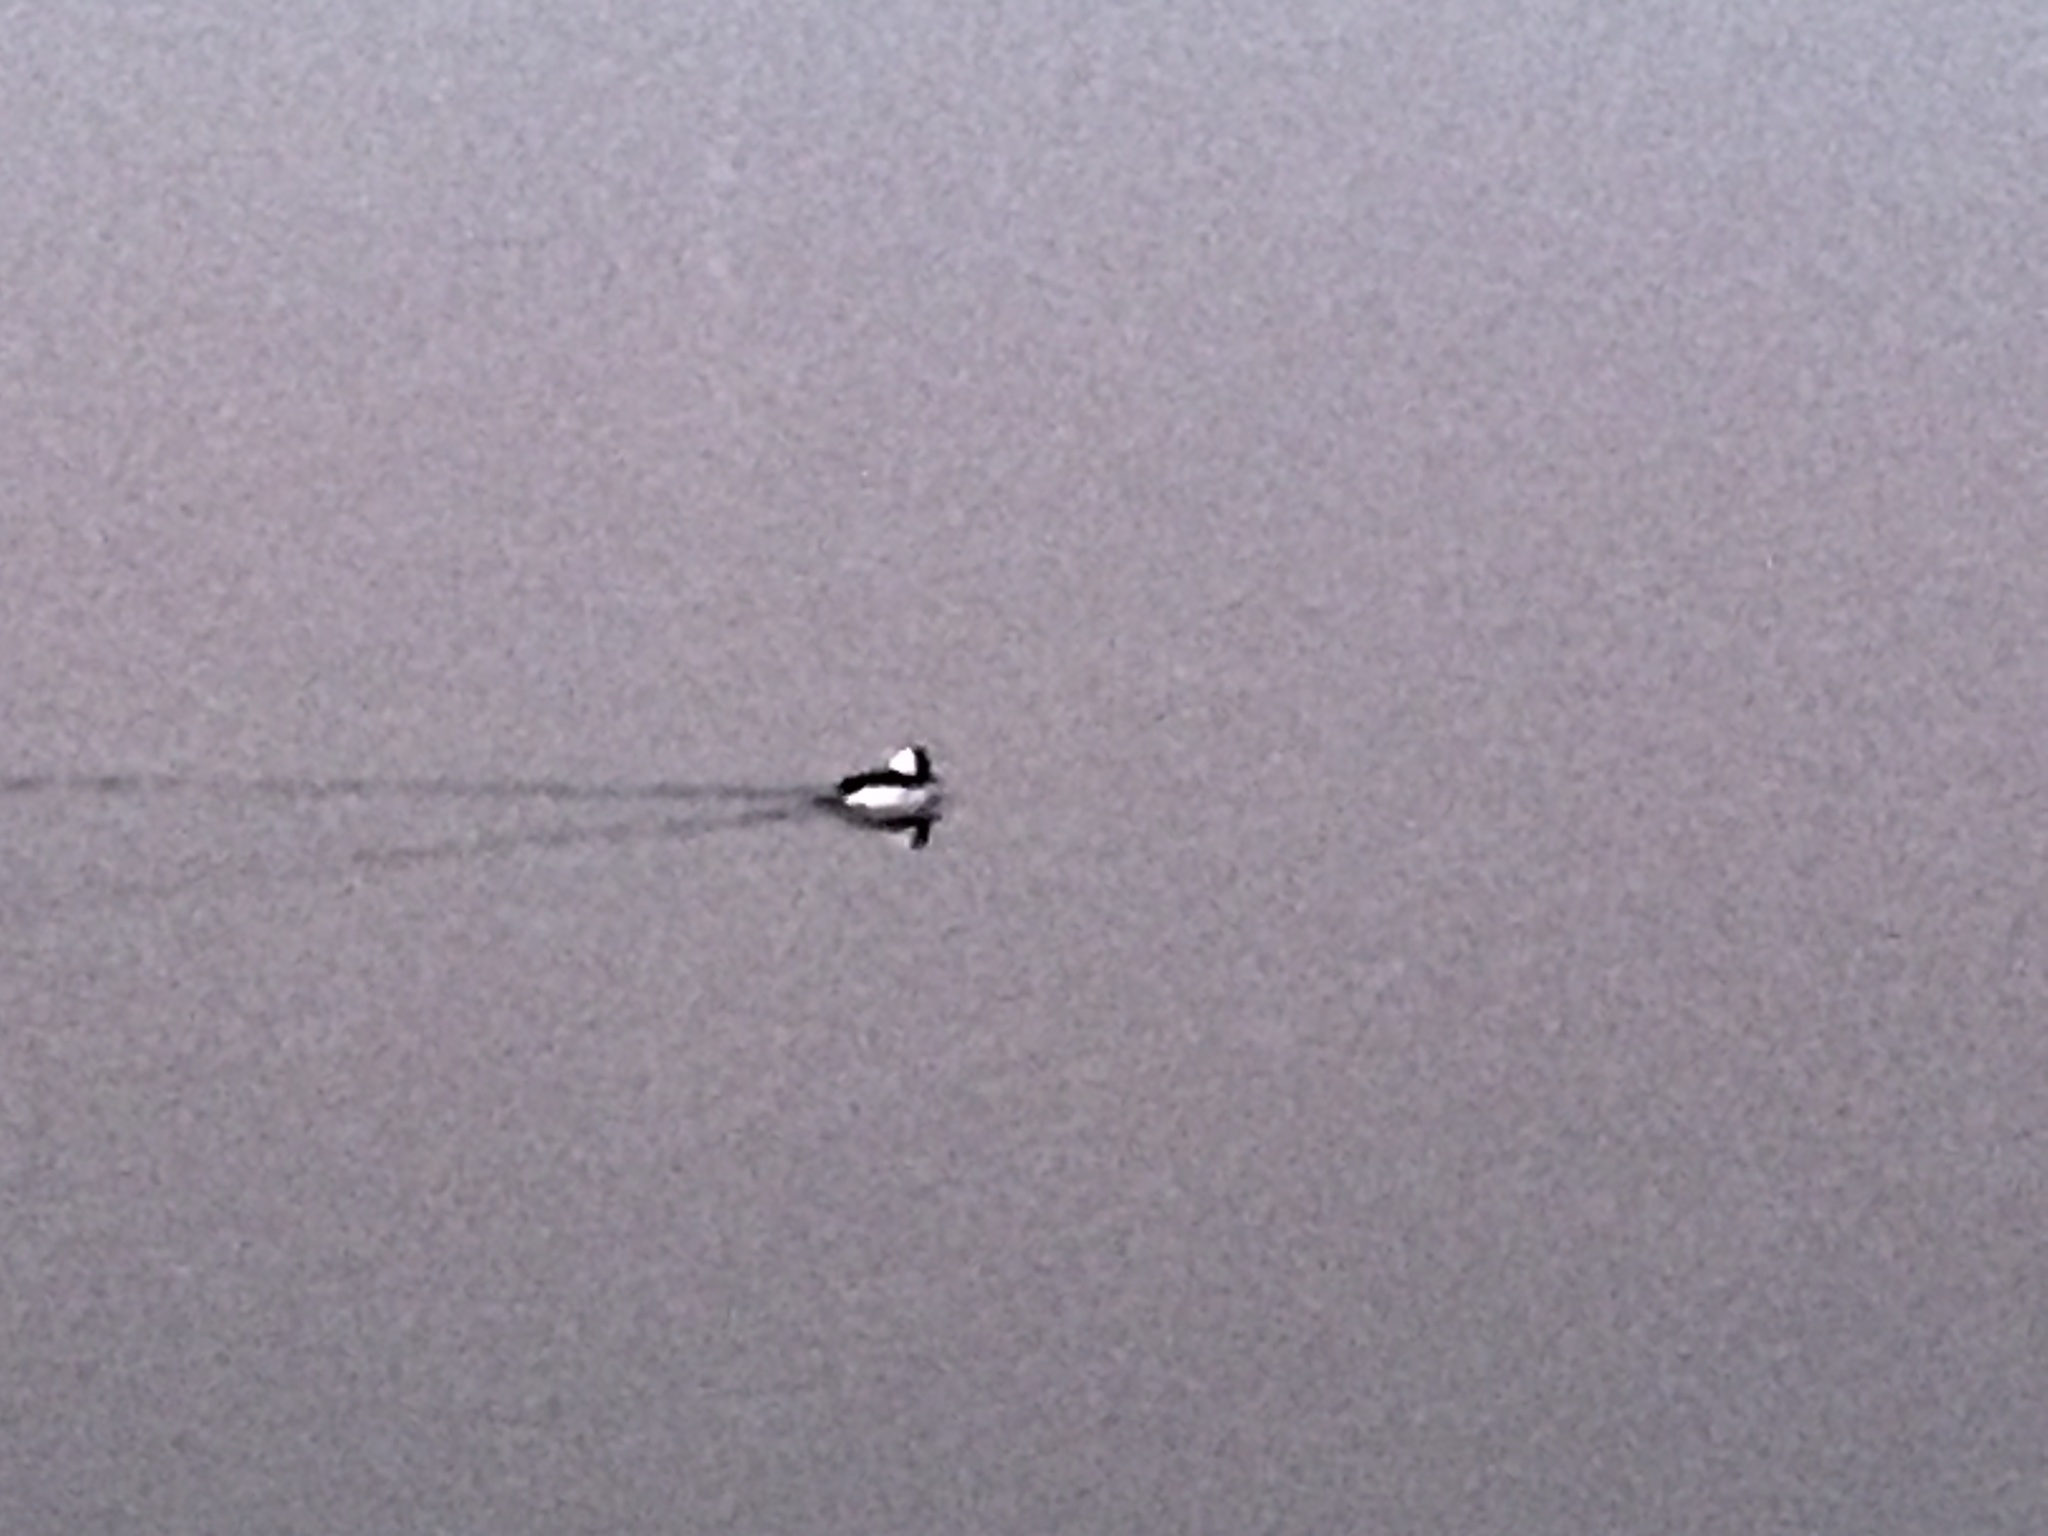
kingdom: Animalia
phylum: Chordata
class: Aves
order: Anseriformes
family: Anatidae
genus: Bucephala
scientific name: Bucephala albeola
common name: Bufflehead
